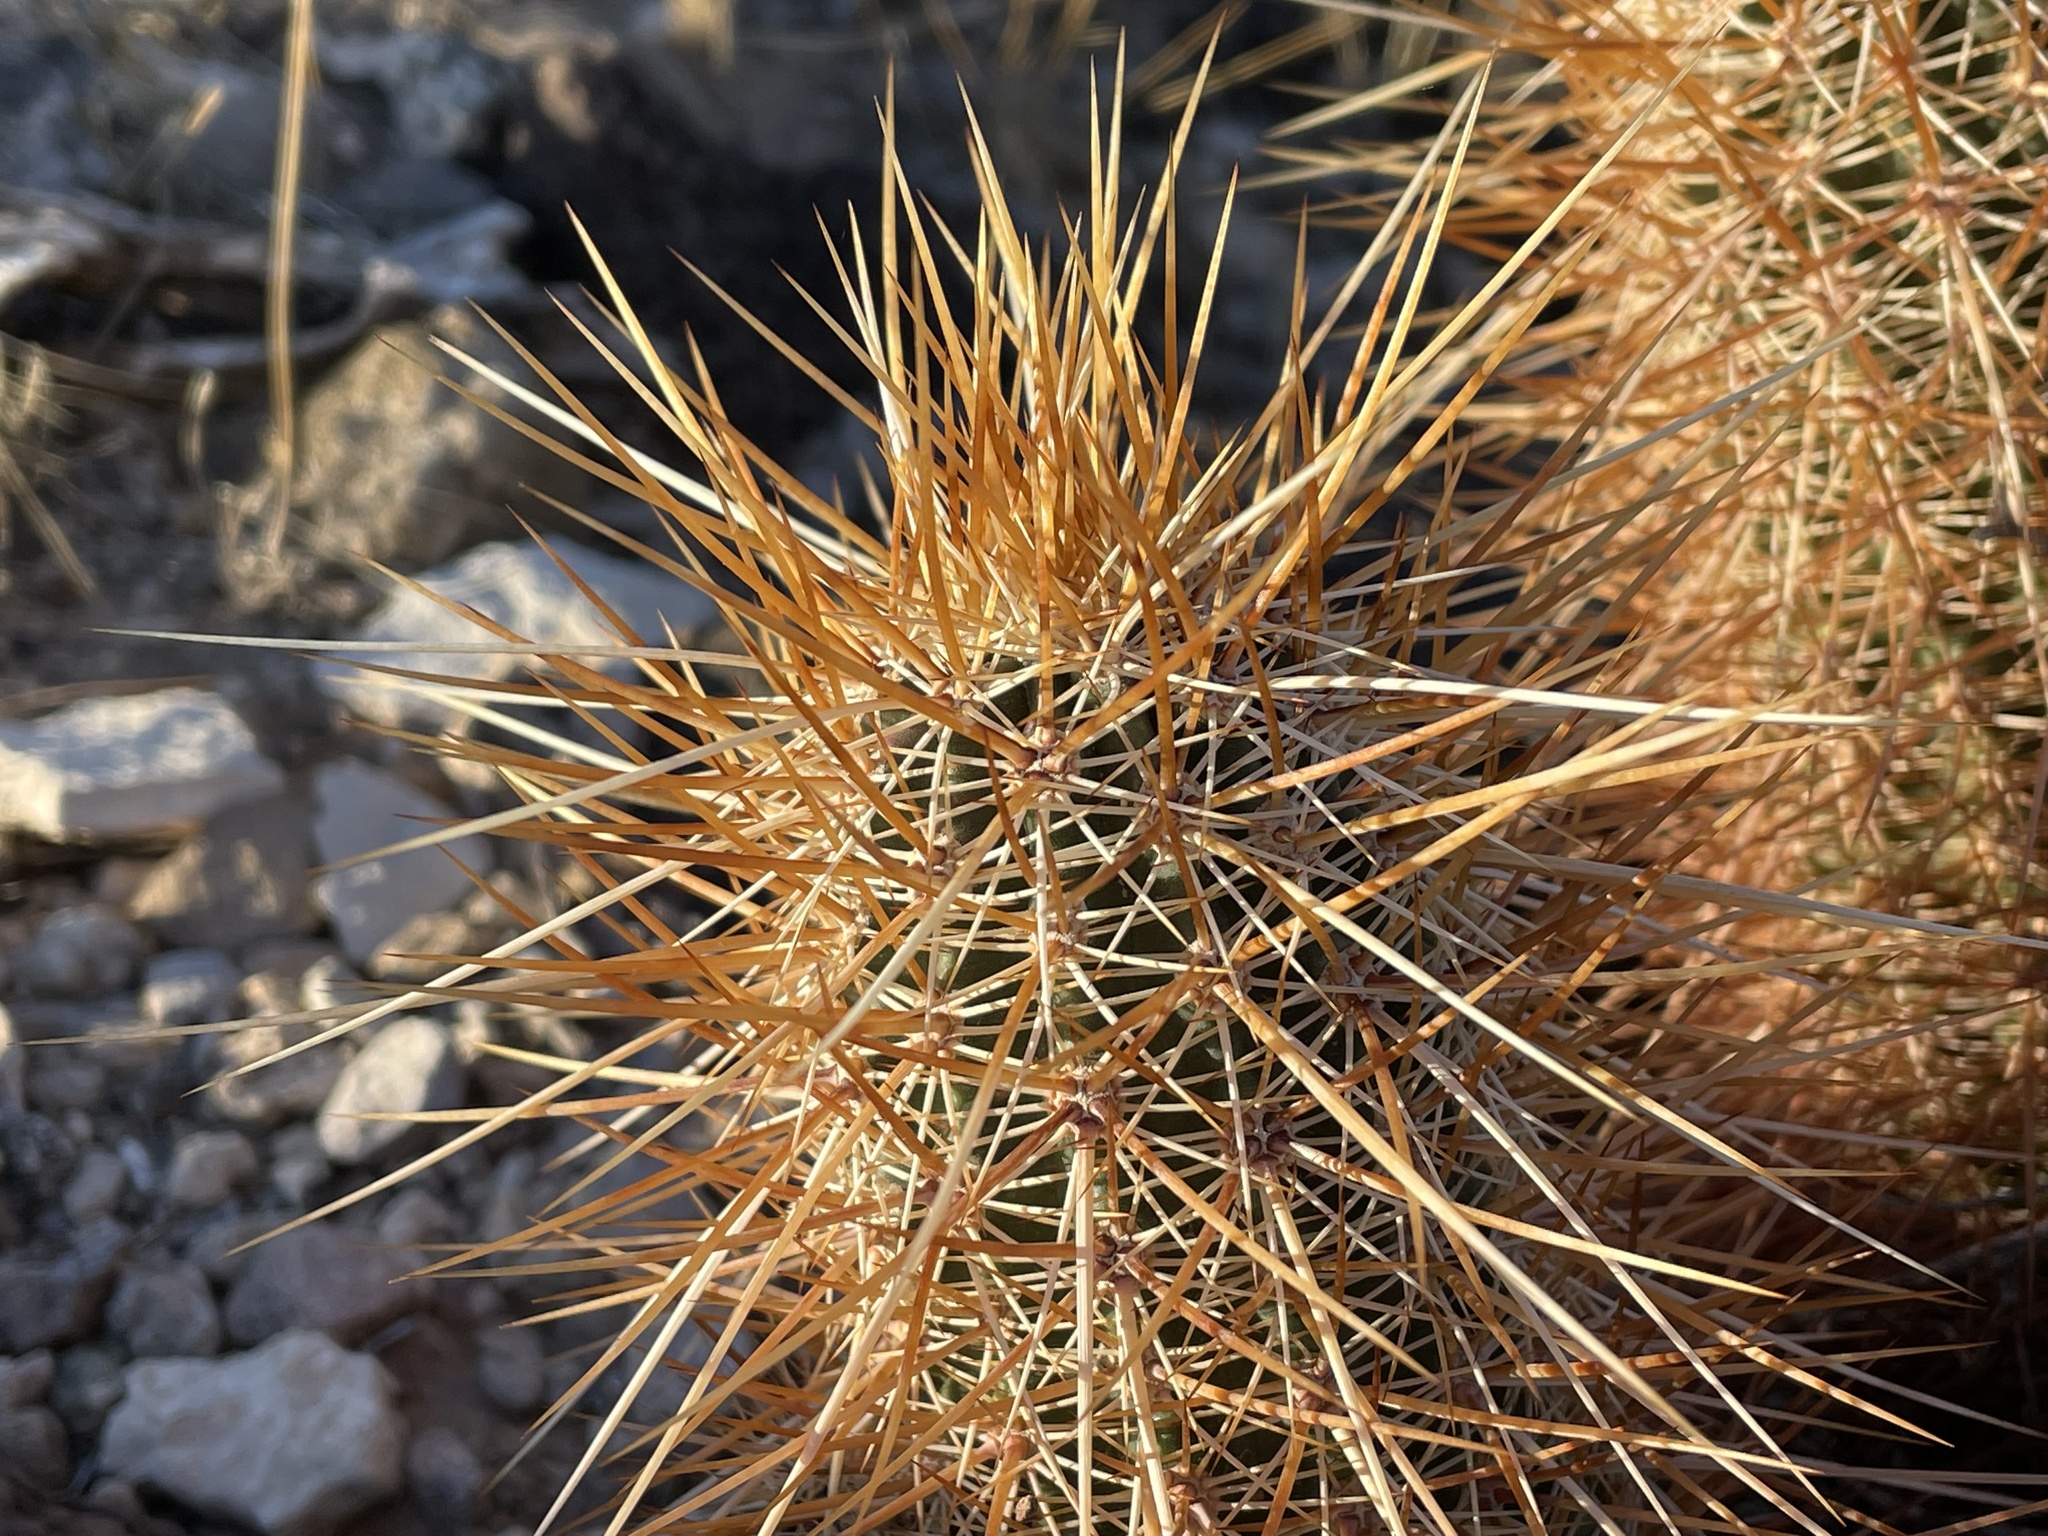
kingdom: Plantae
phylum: Tracheophyta
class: Magnoliopsida
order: Caryophyllales
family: Cactaceae
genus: Echinocereus
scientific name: Echinocereus engelmannii
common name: Engelmann's hedgehog cactus
